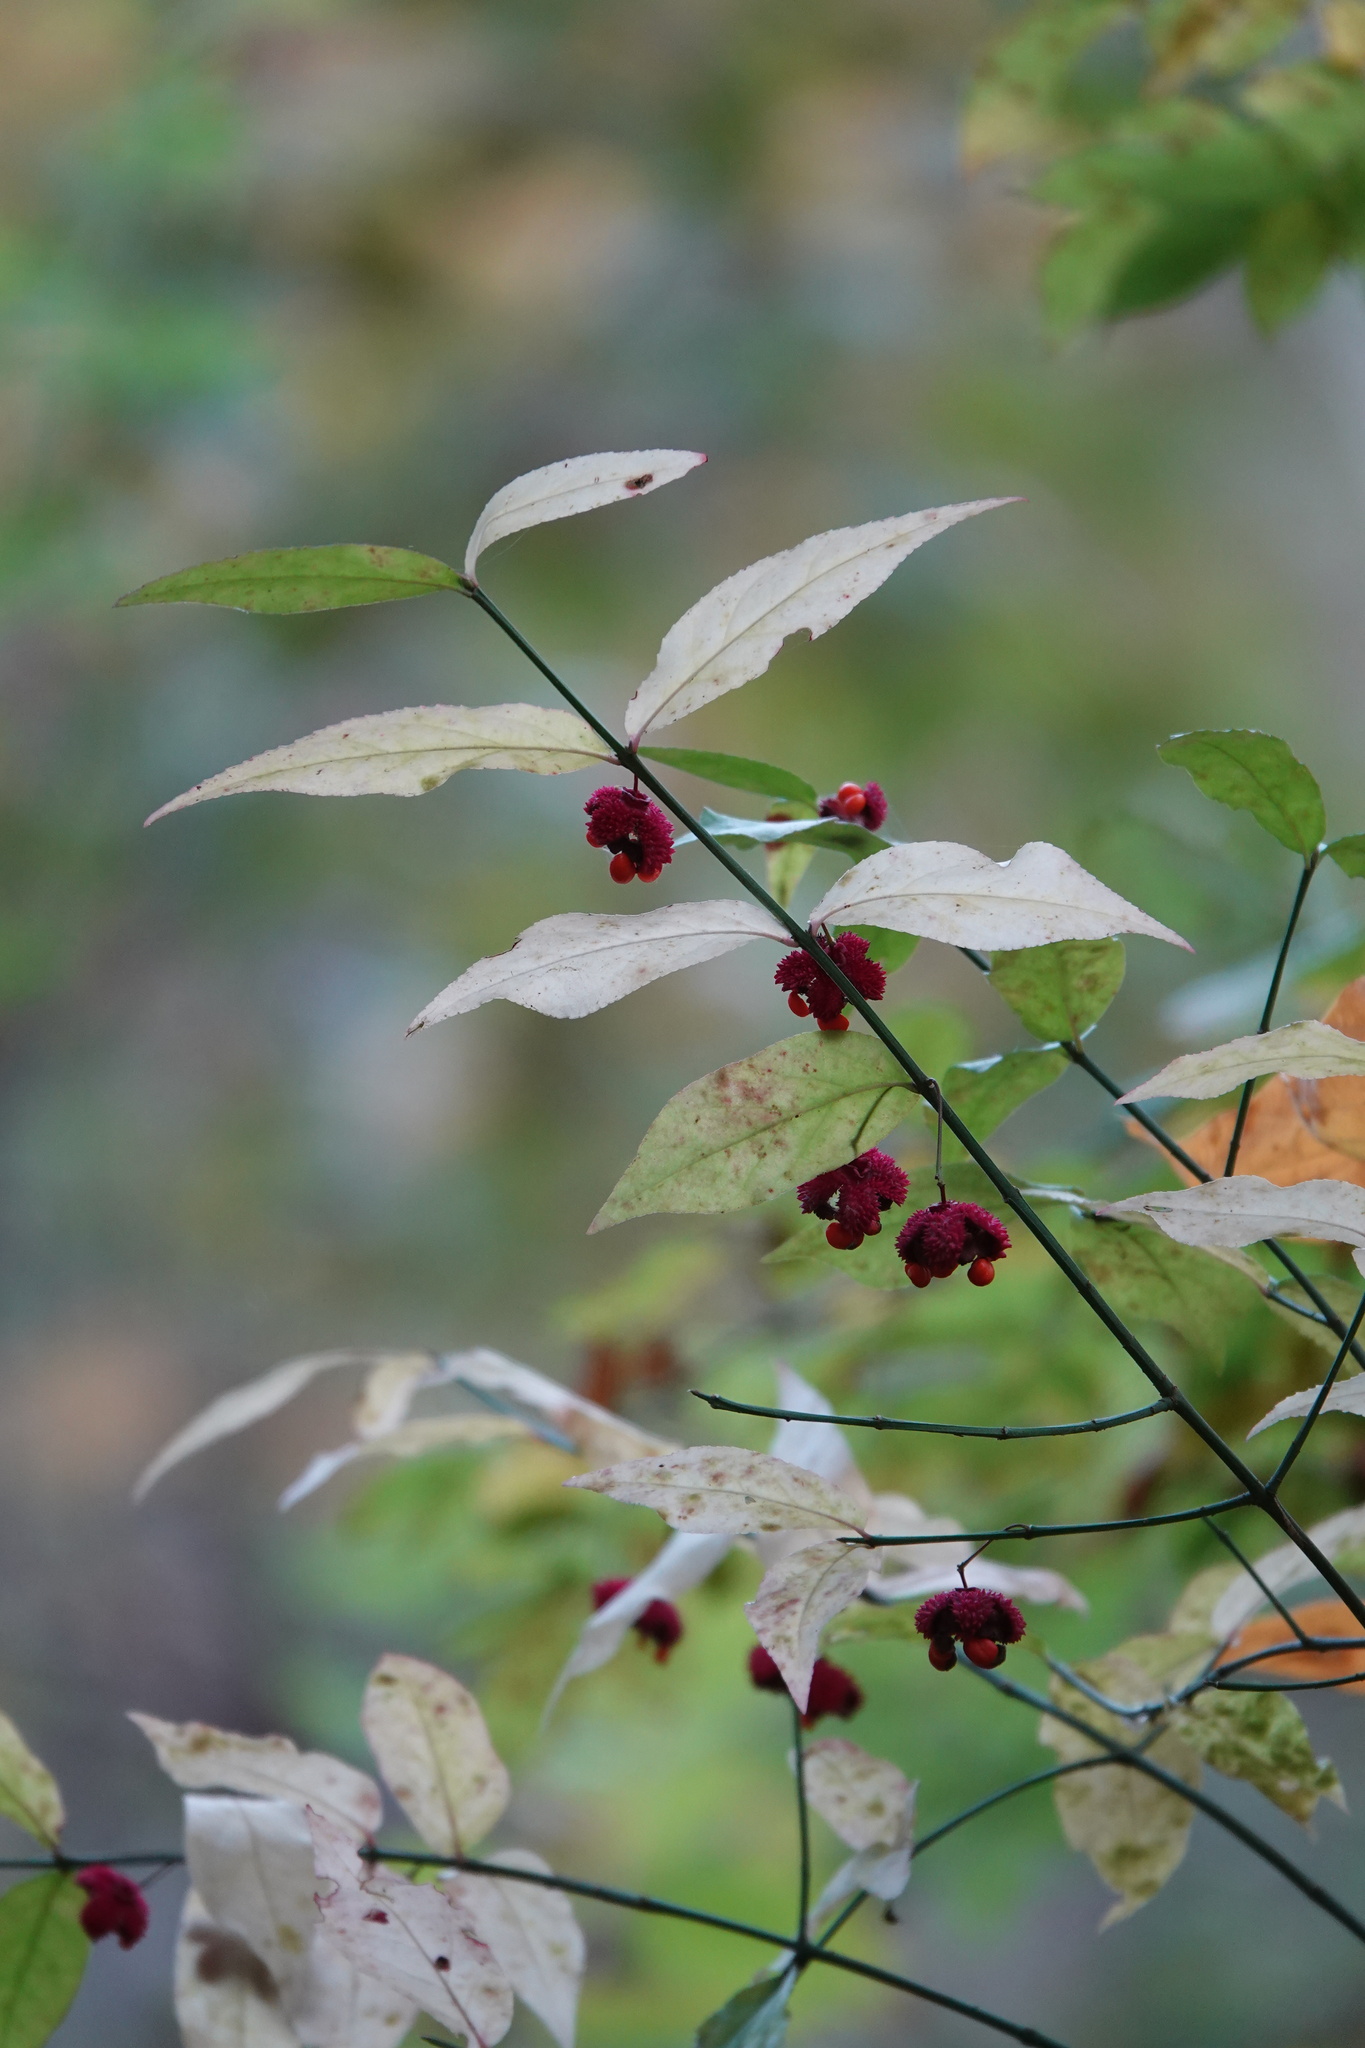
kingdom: Plantae
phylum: Tracheophyta
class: Magnoliopsida
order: Celastrales
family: Celastraceae
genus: Euonymus
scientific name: Euonymus americanus
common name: Bursting-heart
